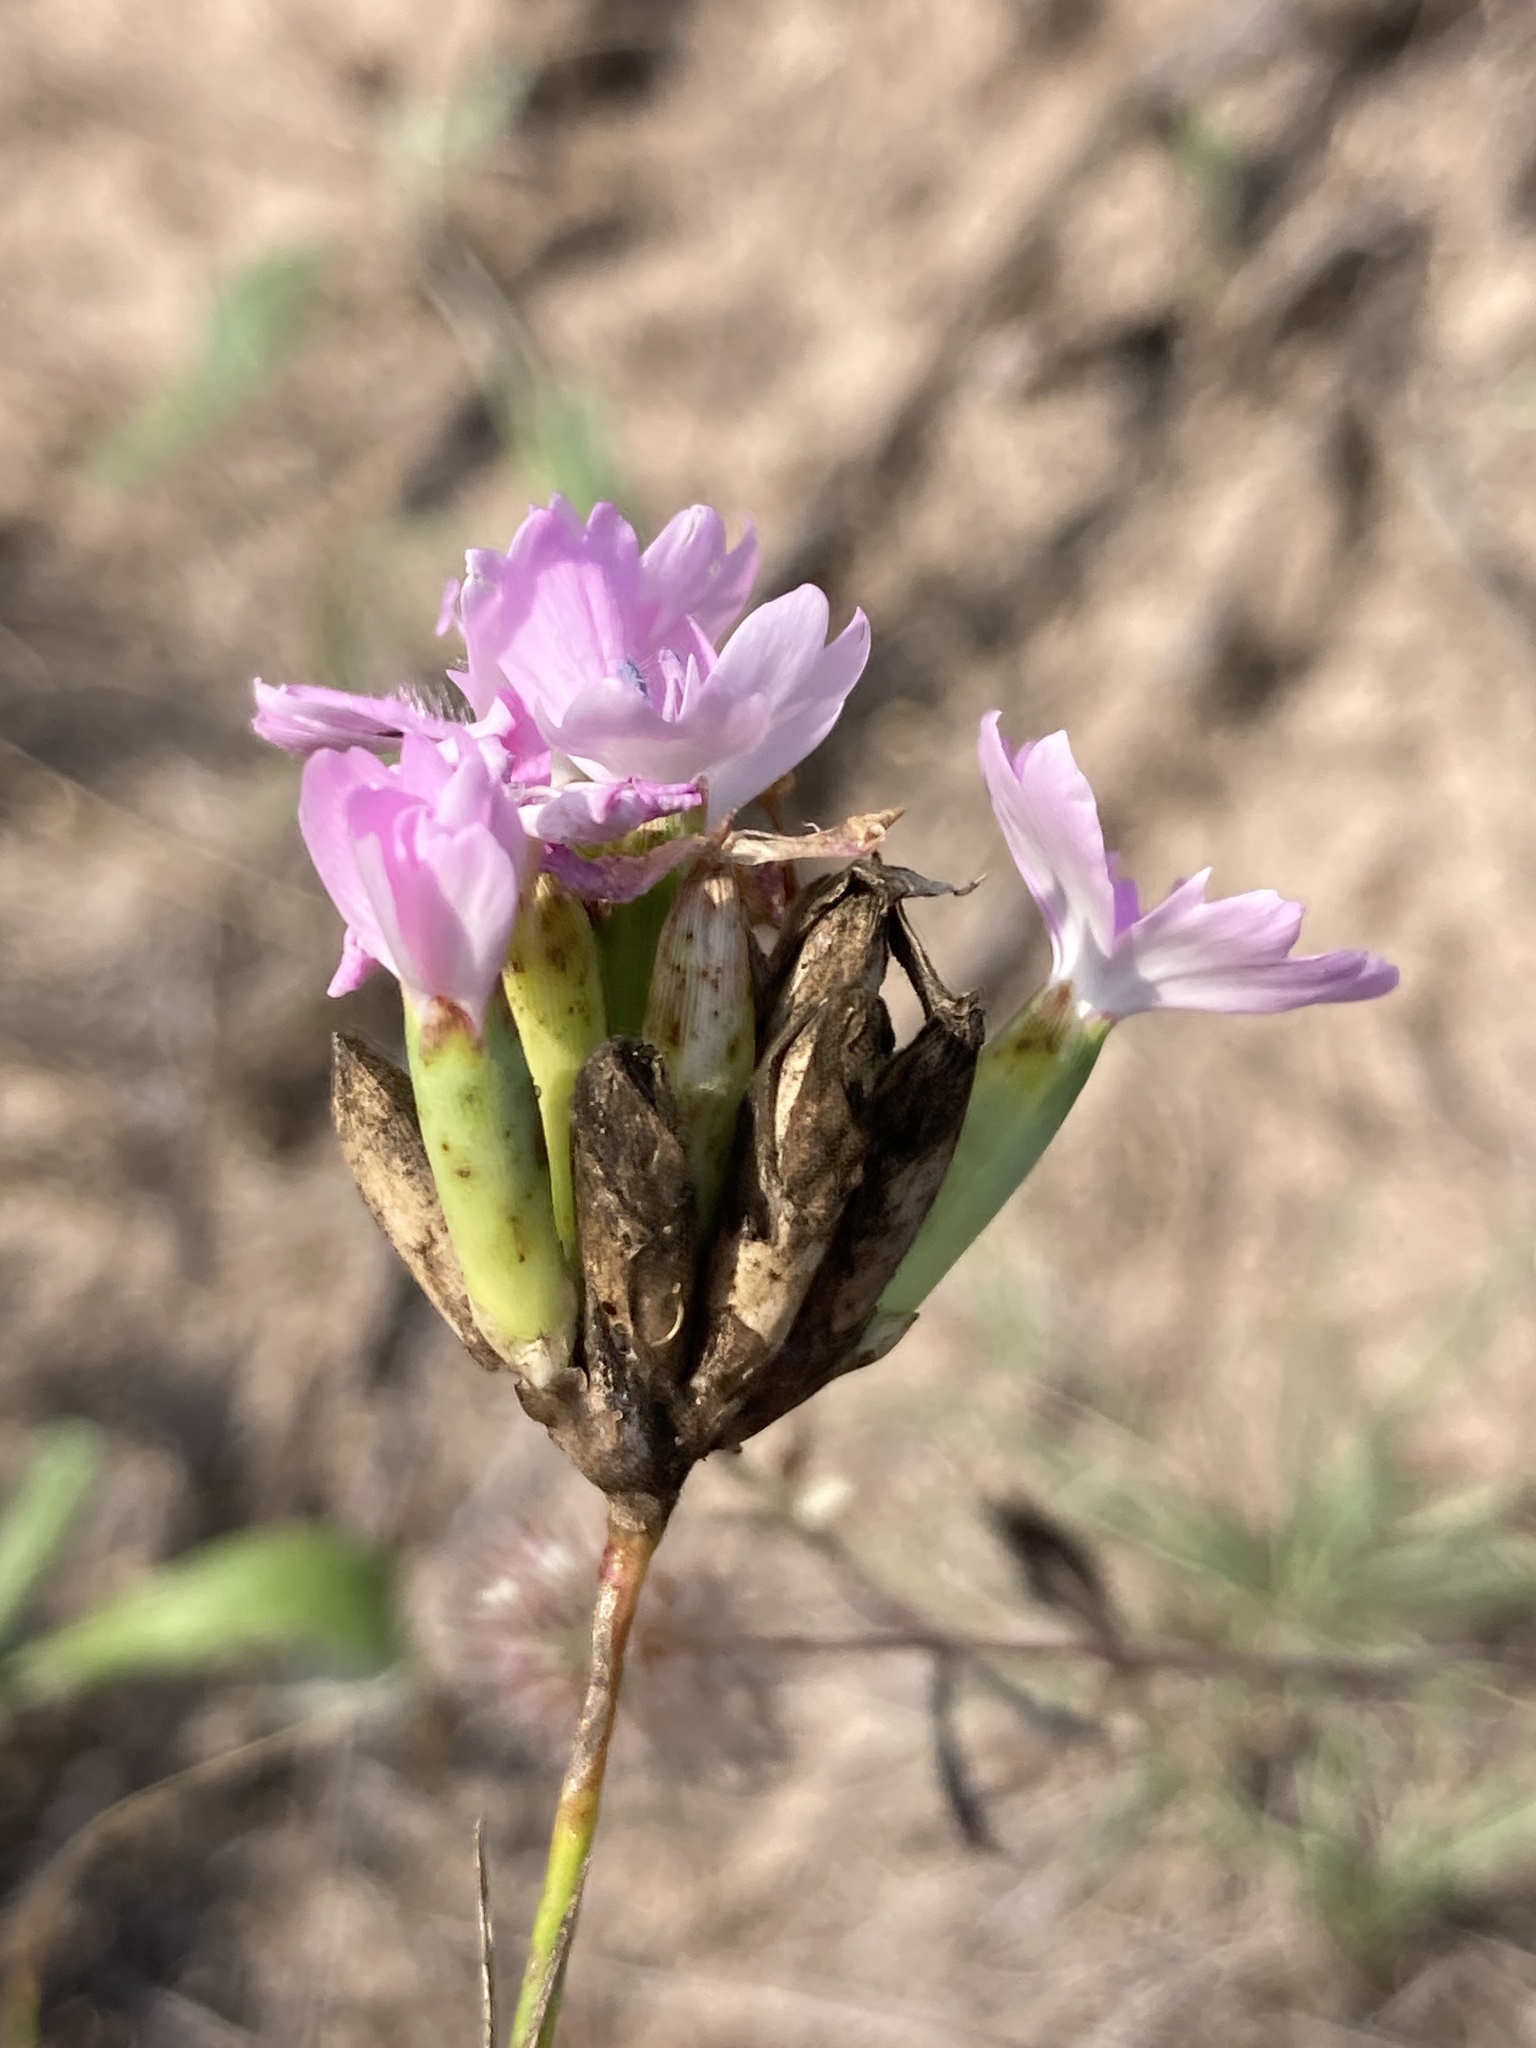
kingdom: Plantae
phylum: Tracheophyta
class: Magnoliopsida
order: Caryophyllales
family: Caryophyllaceae
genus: Dianthus
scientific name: Dianthus polymorphus
